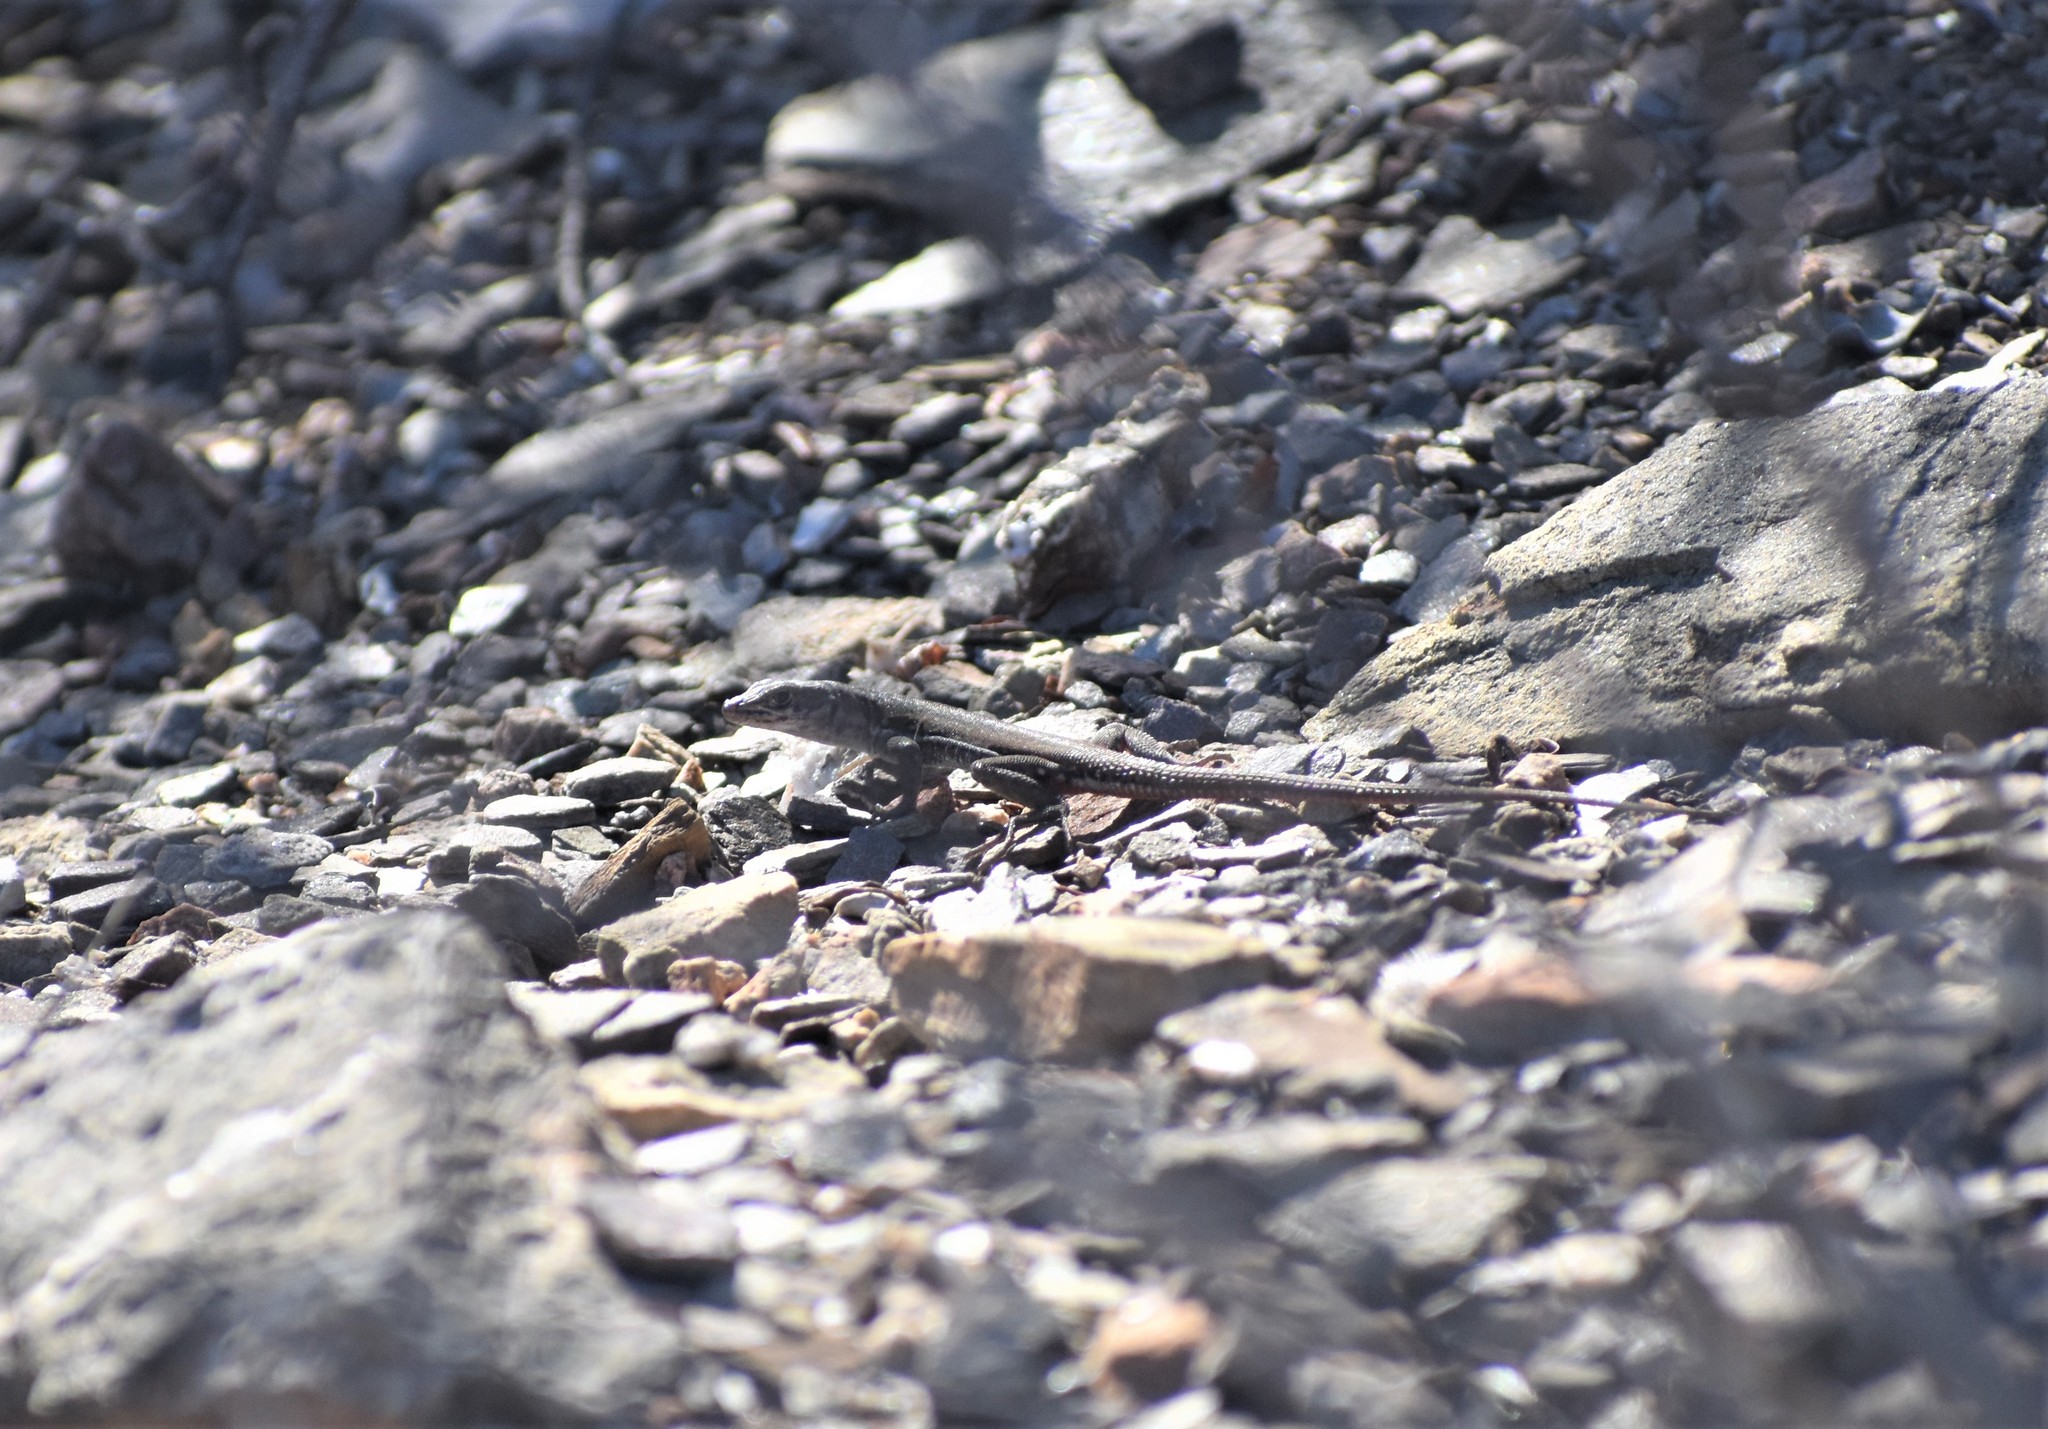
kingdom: Animalia
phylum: Chordata
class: Squamata
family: Lacertidae
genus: Pedioplanis
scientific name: Pedioplanis lineoocellata
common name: Spotted sand lizard
